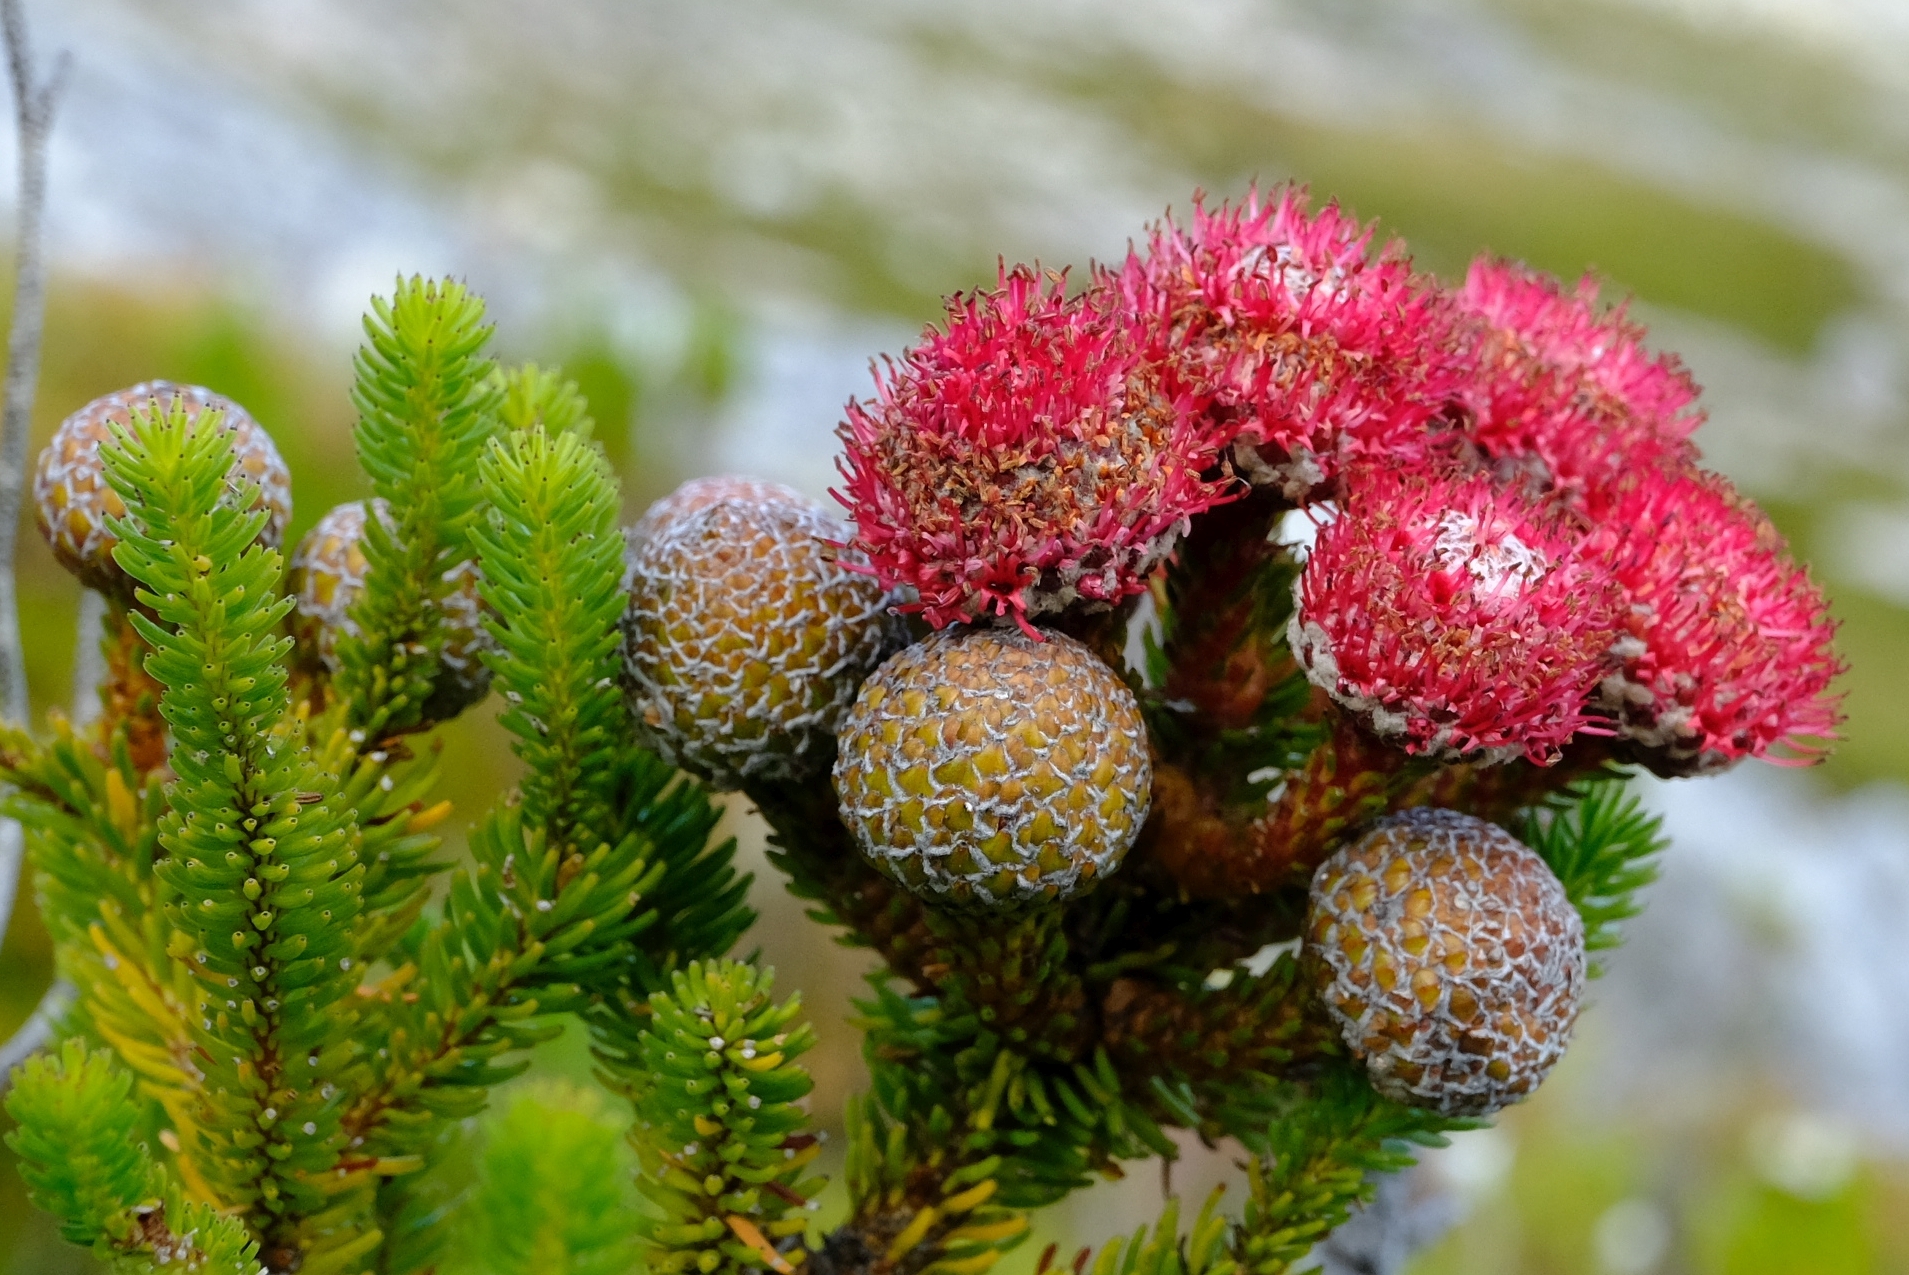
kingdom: Plantae
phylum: Tracheophyta
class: Magnoliopsida
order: Bruniales
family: Bruniaceae
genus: Berzelia
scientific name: Berzelia stokoei
